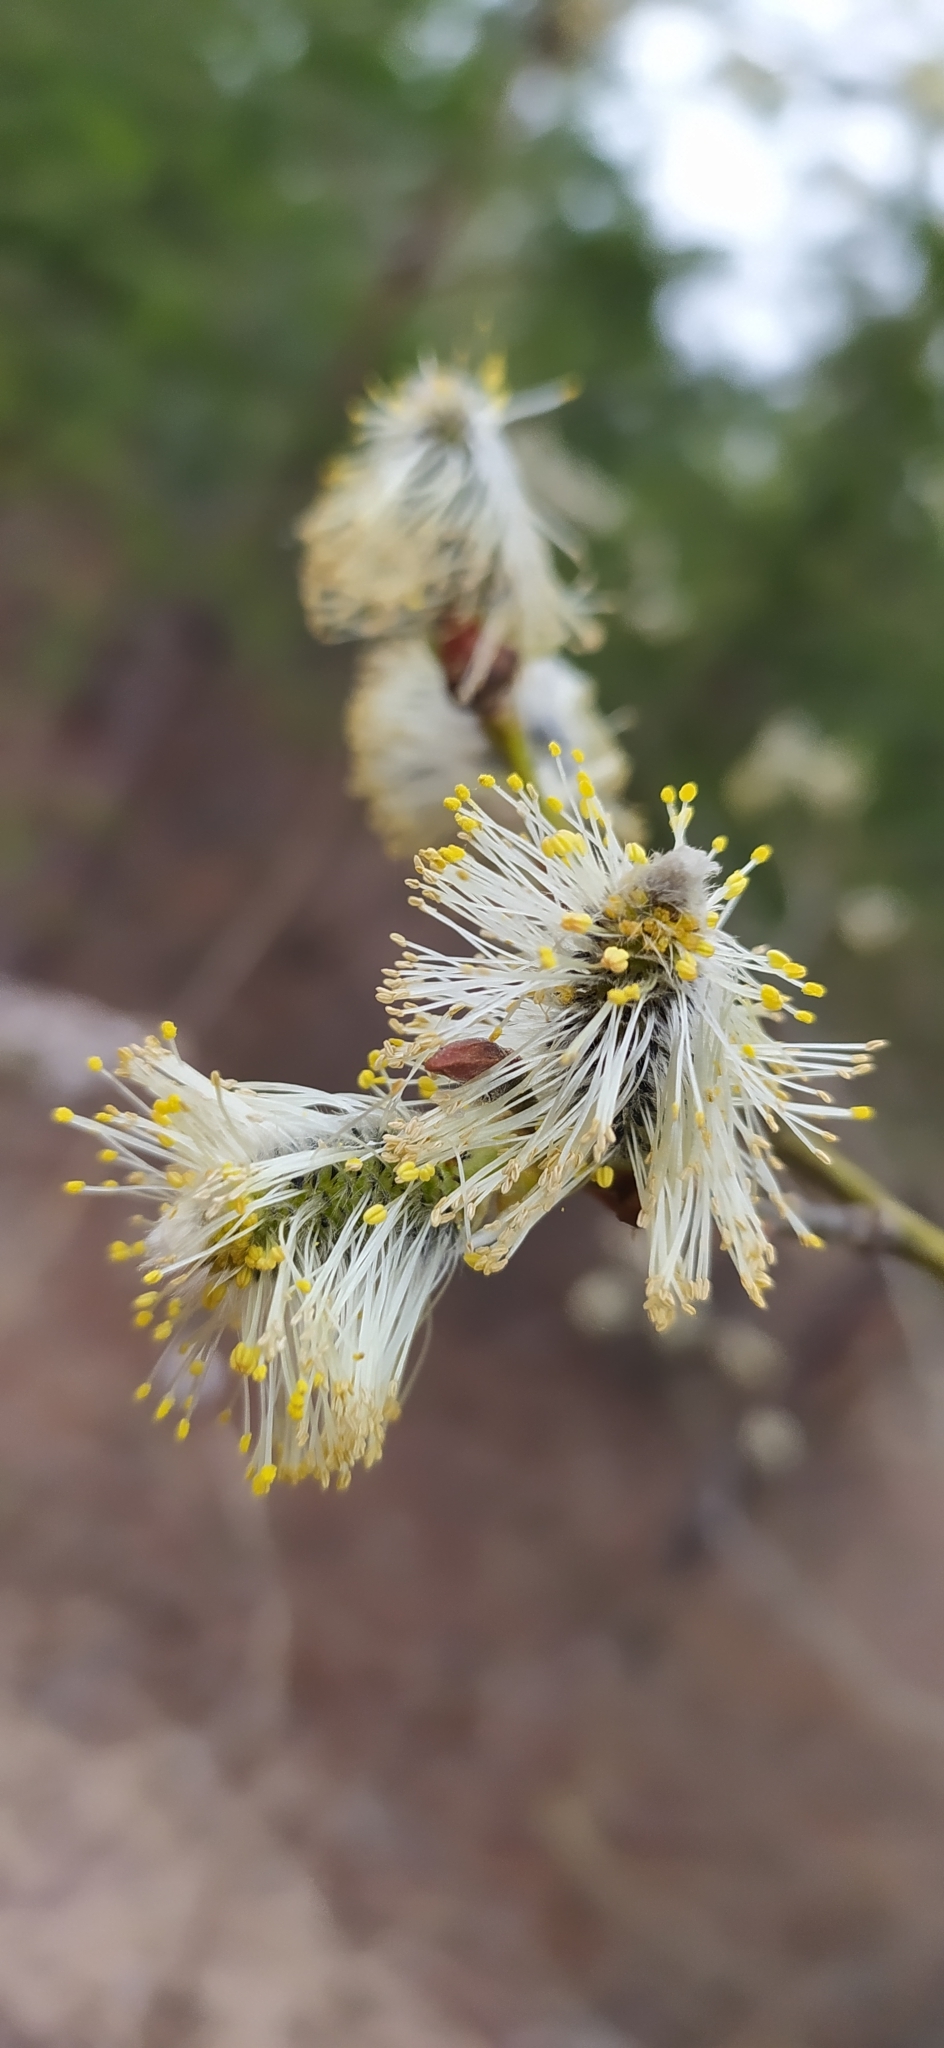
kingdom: Plantae
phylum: Tracheophyta
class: Magnoliopsida
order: Malpighiales
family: Salicaceae
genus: Salix
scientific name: Salix caprea
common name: Goat willow
